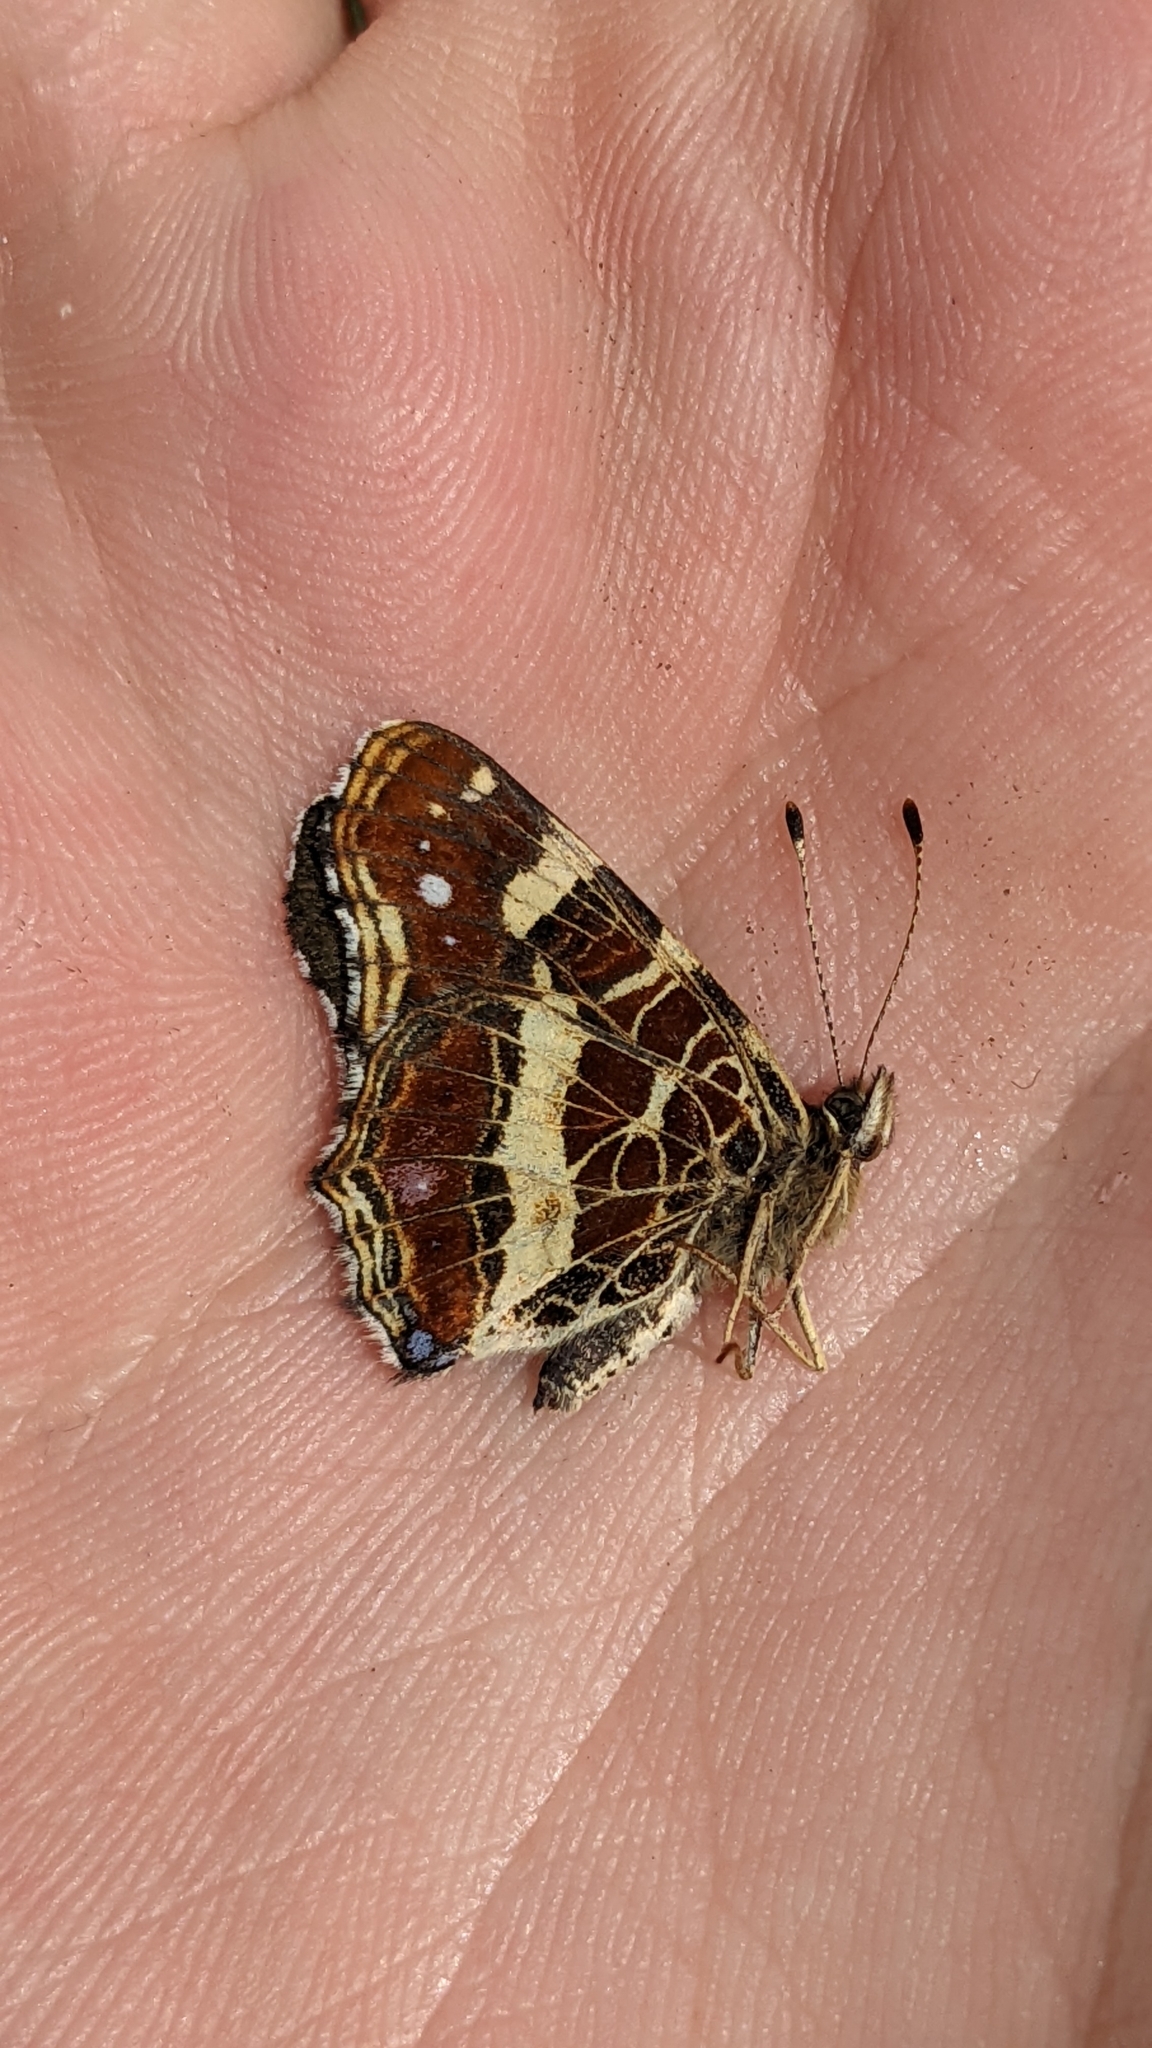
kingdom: Animalia
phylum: Arthropoda
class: Insecta
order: Lepidoptera
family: Nymphalidae
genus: Araschnia
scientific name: Araschnia levana
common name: Map butterfly
